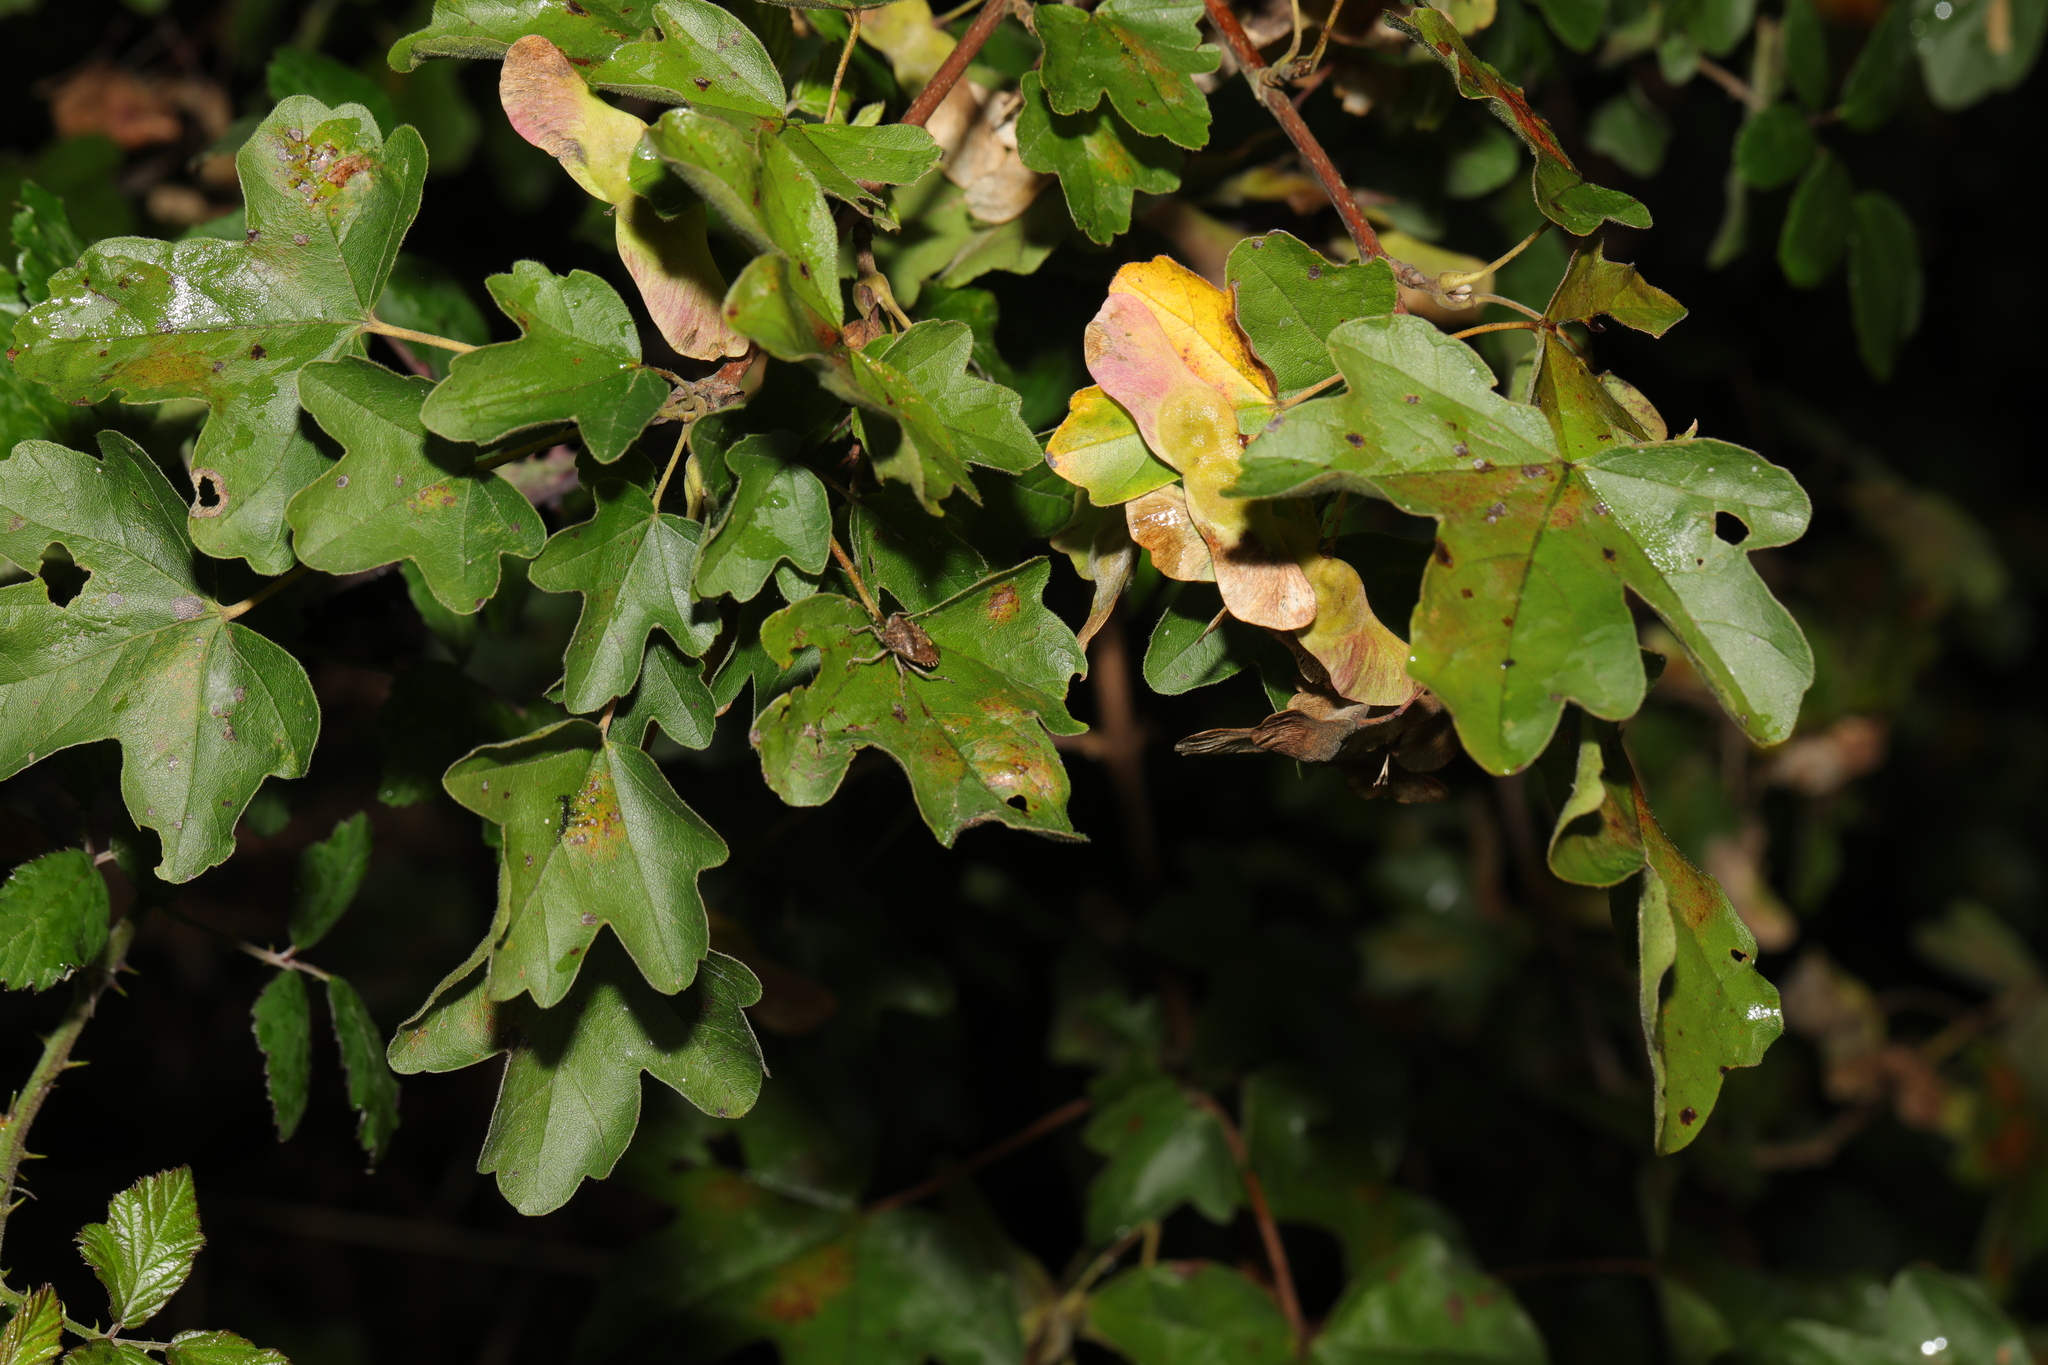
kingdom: Plantae
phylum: Tracheophyta
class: Magnoliopsida
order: Sapindales
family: Sapindaceae
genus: Acer
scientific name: Acer campestre
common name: Field maple
